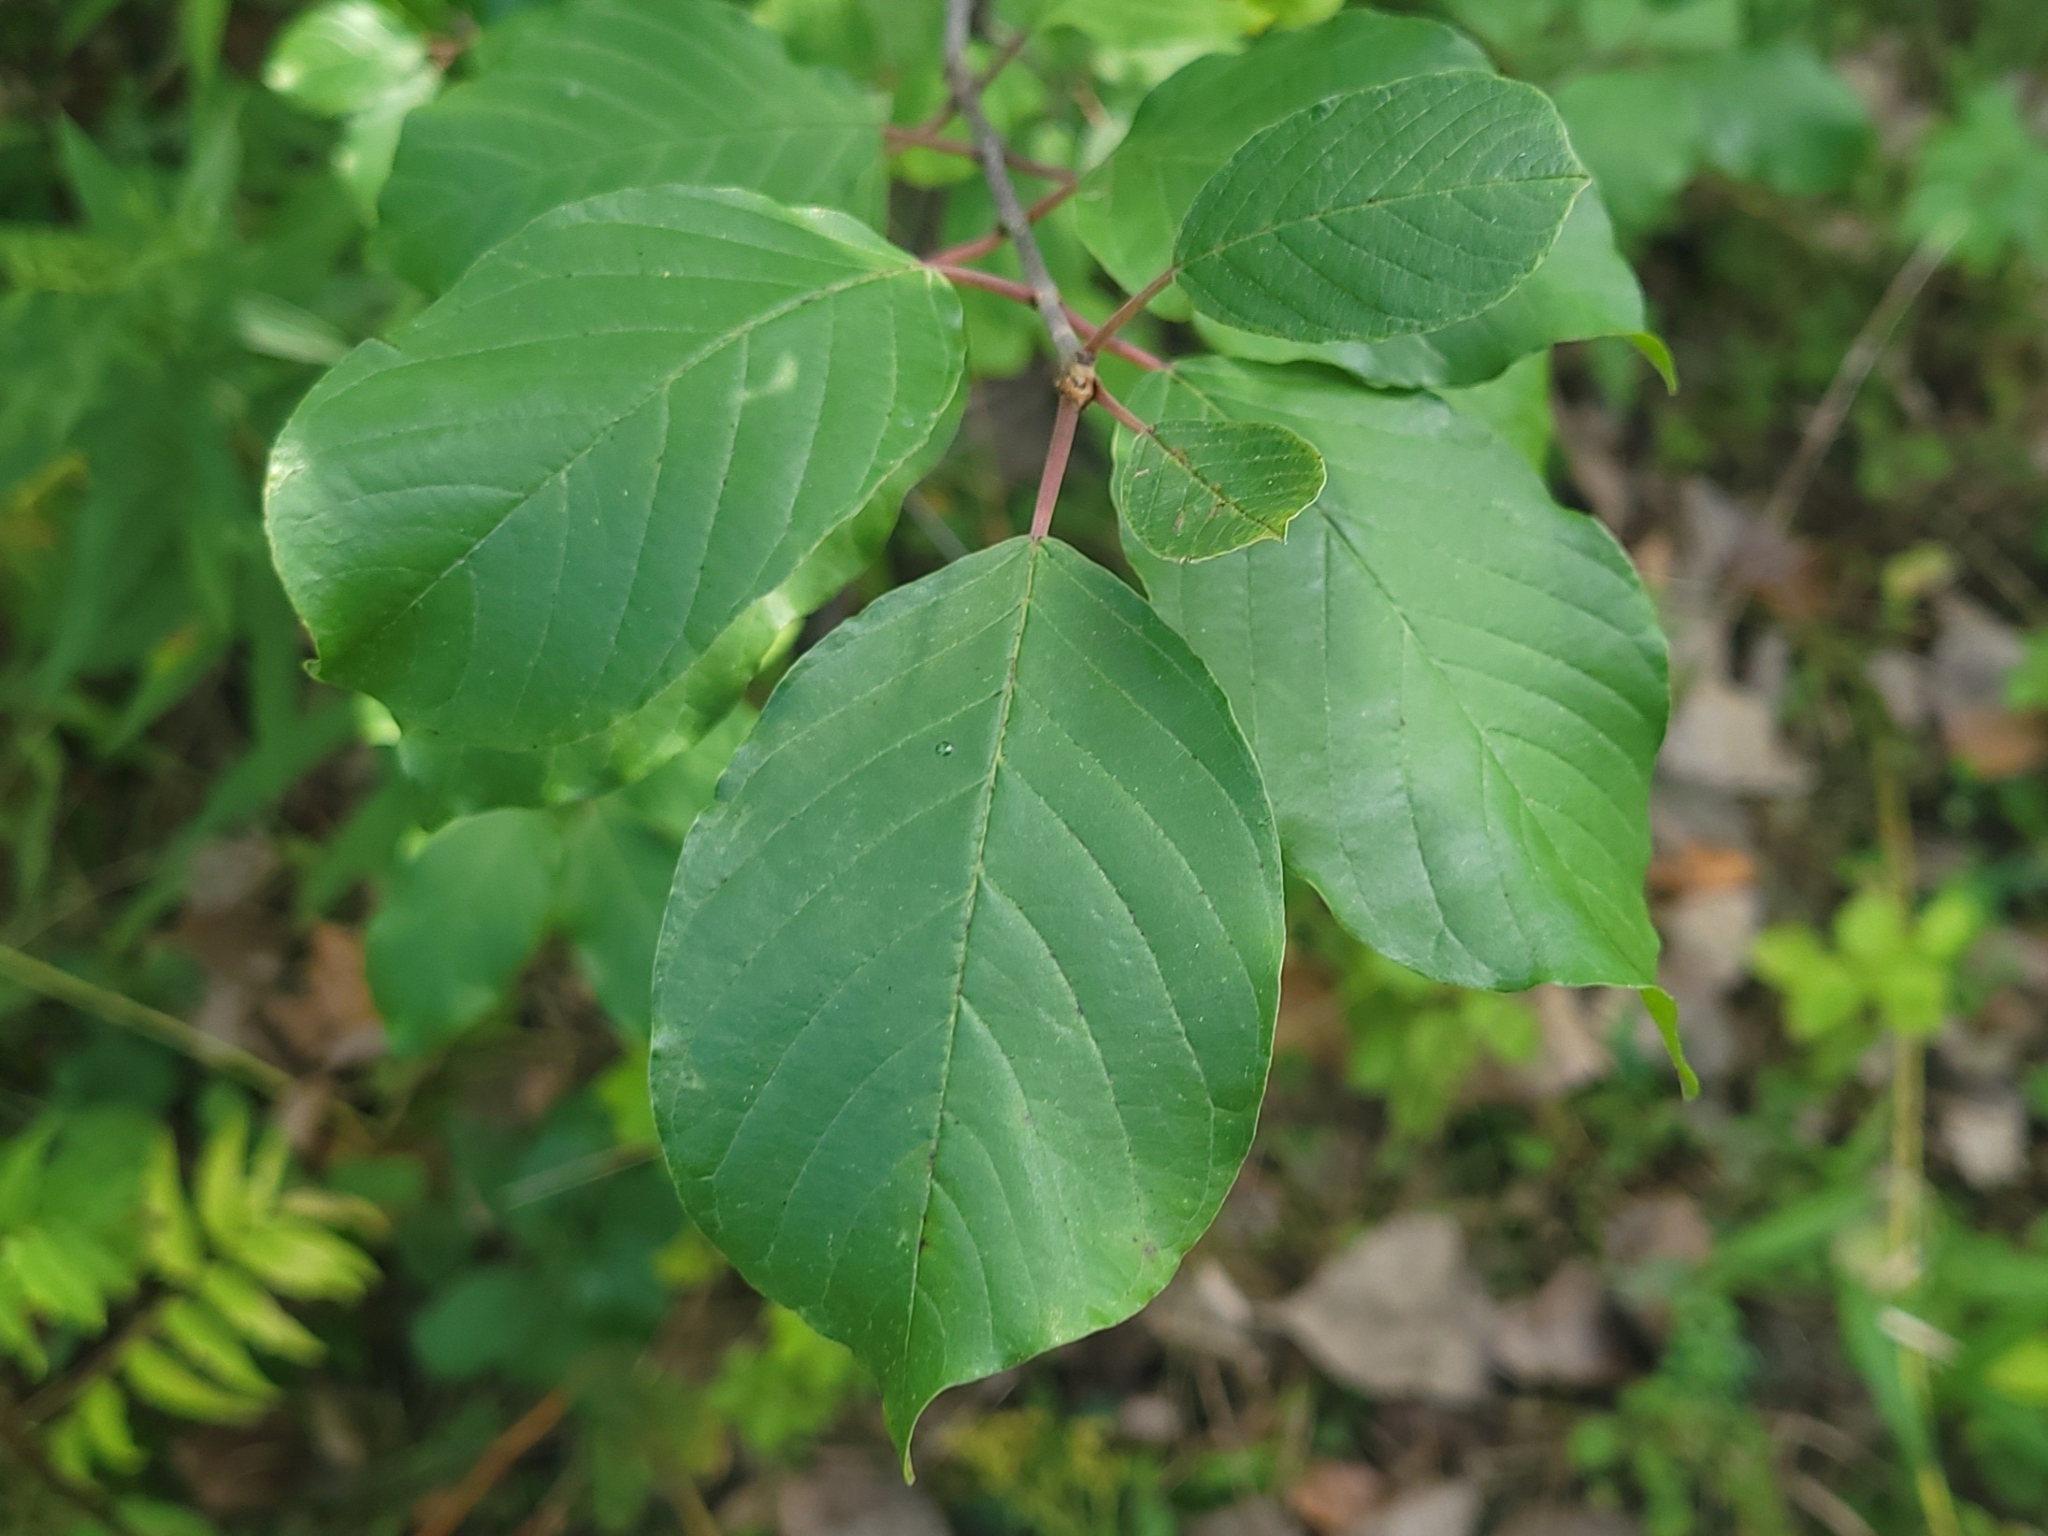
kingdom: Plantae
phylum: Tracheophyta
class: Magnoliopsida
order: Rosales
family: Rhamnaceae
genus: Frangula
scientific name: Frangula alnus
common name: Alder buckthorn
